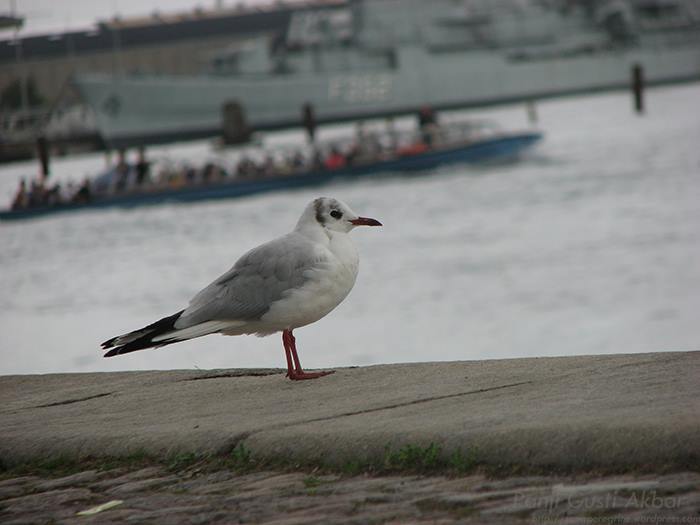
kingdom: Animalia
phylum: Chordata
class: Aves
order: Charadriiformes
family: Laridae
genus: Chroicocephalus
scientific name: Chroicocephalus ridibundus
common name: Black-headed gull
